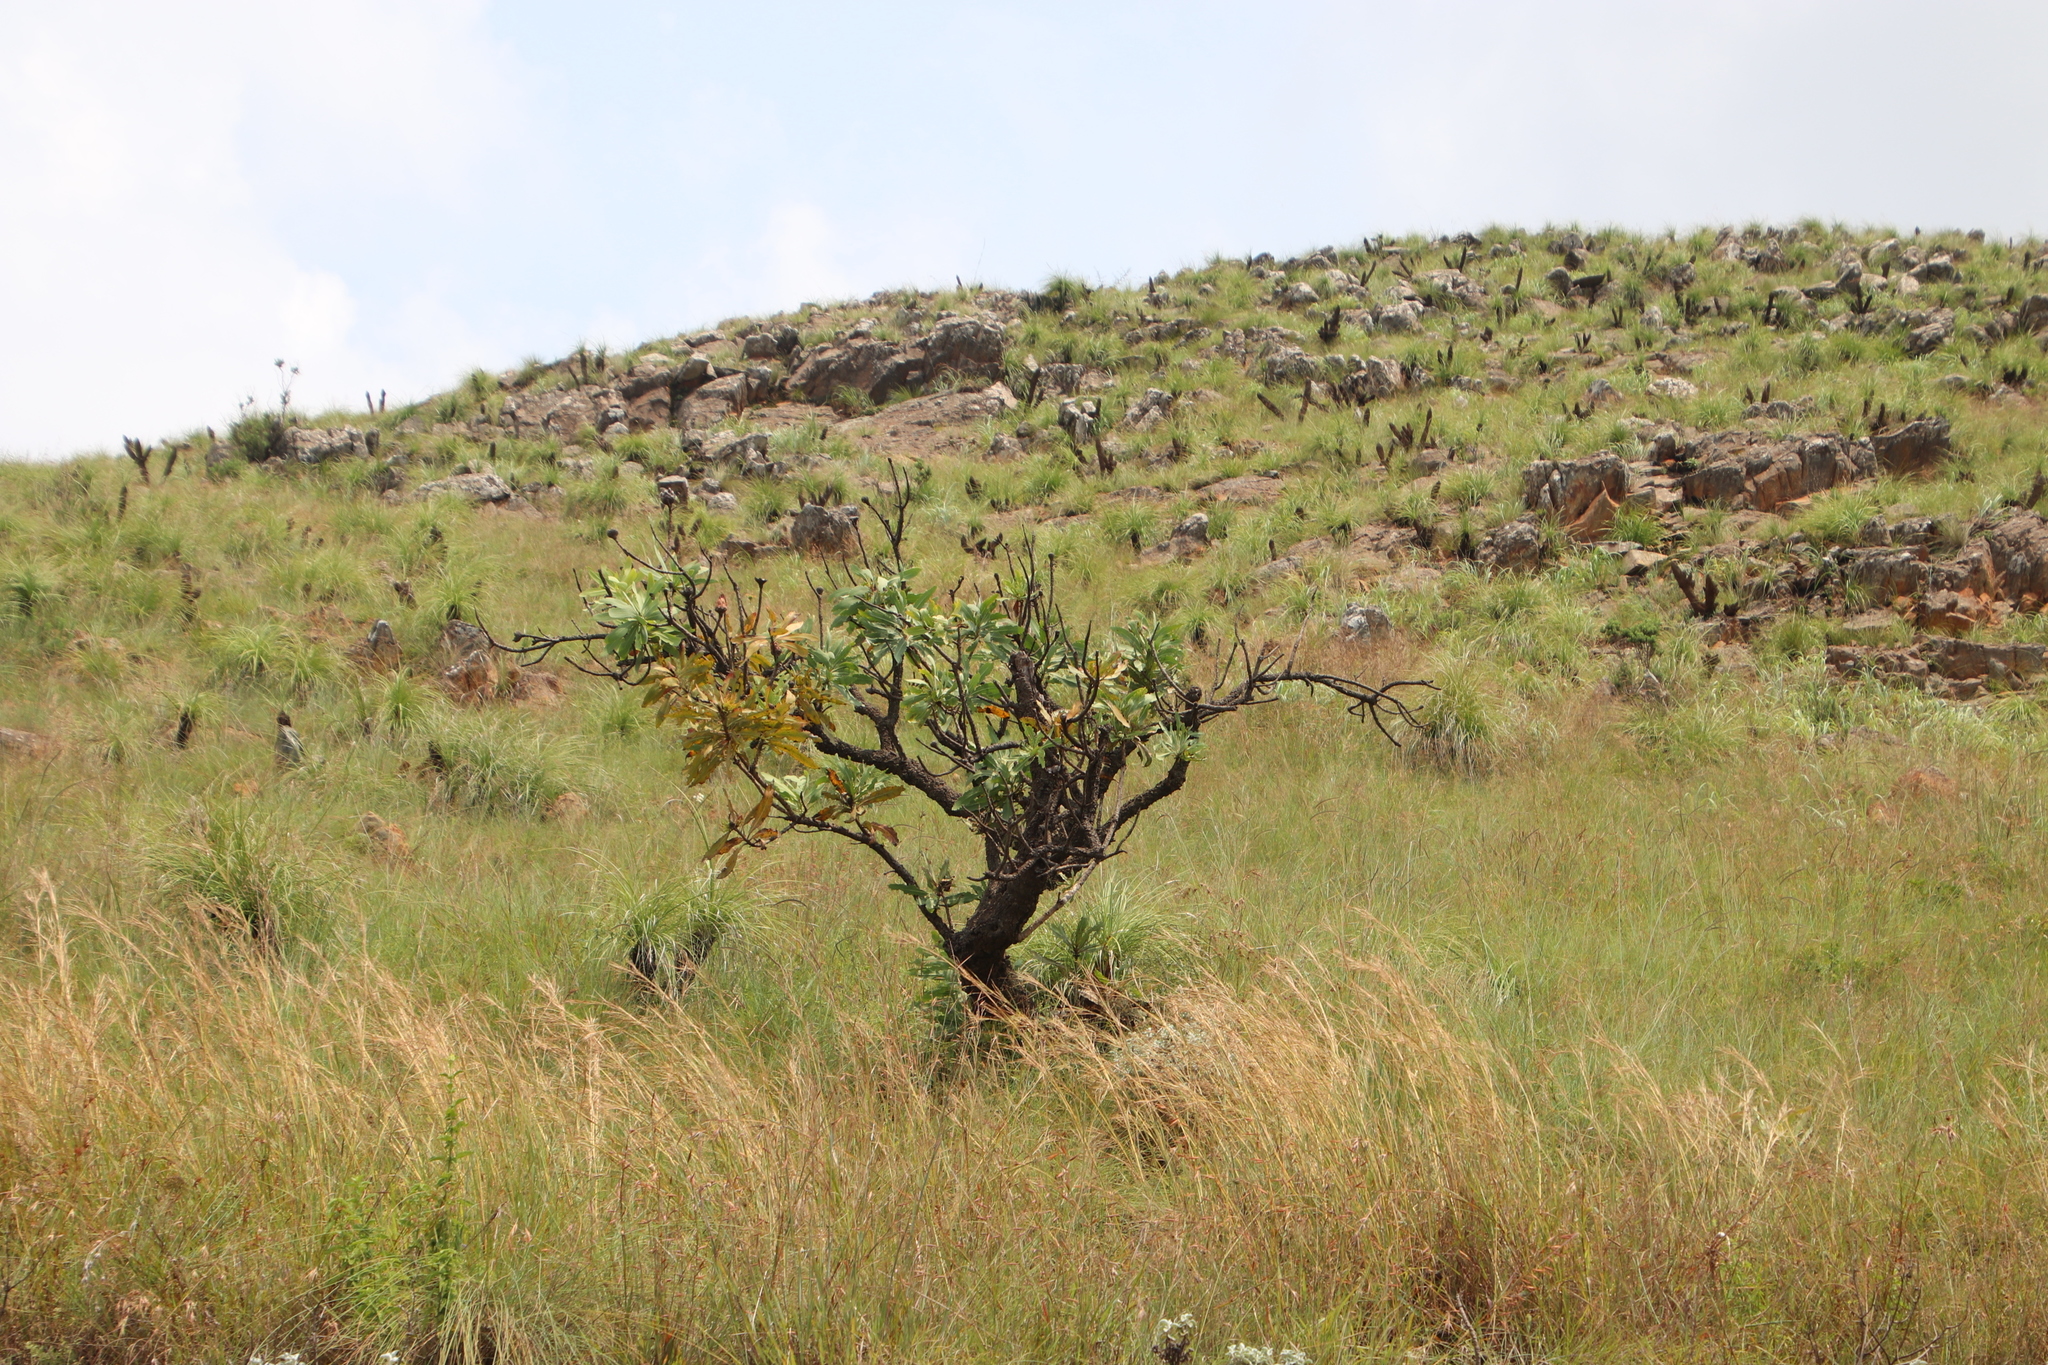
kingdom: Plantae
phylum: Tracheophyta
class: Magnoliopsida
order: Proteales
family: Proteaceae
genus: Protea
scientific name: Protea caffra
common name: Common sugarbush
